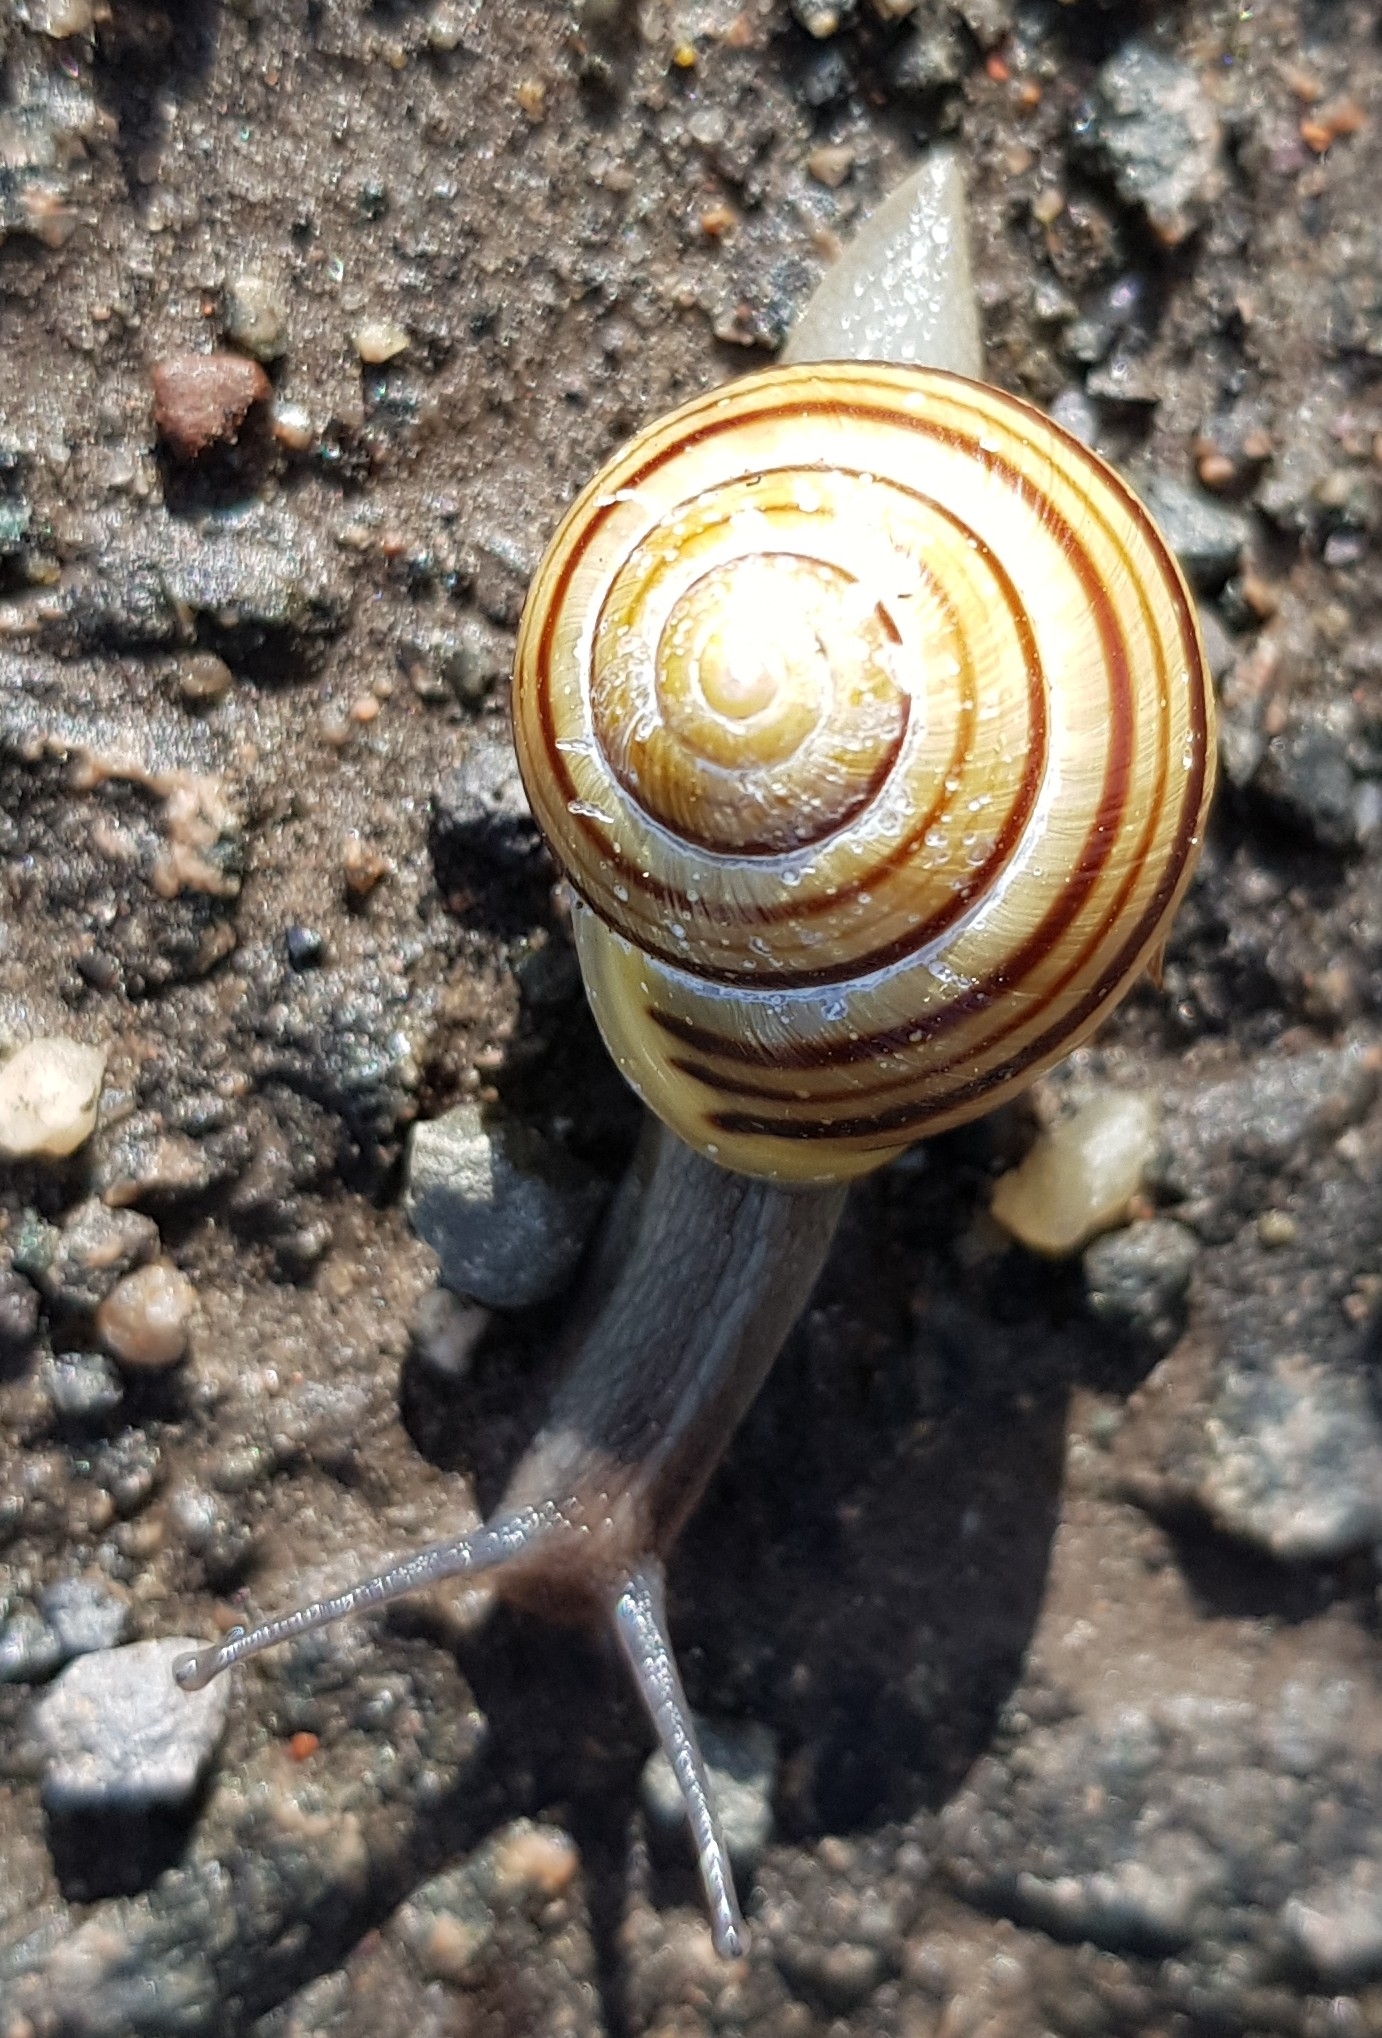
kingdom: Animalia
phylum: Mollusca
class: Gastropoda
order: Stylommatophora
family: Helicidae
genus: Cepaea
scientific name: Cepaea hortensis
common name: White-lip gardensnail
